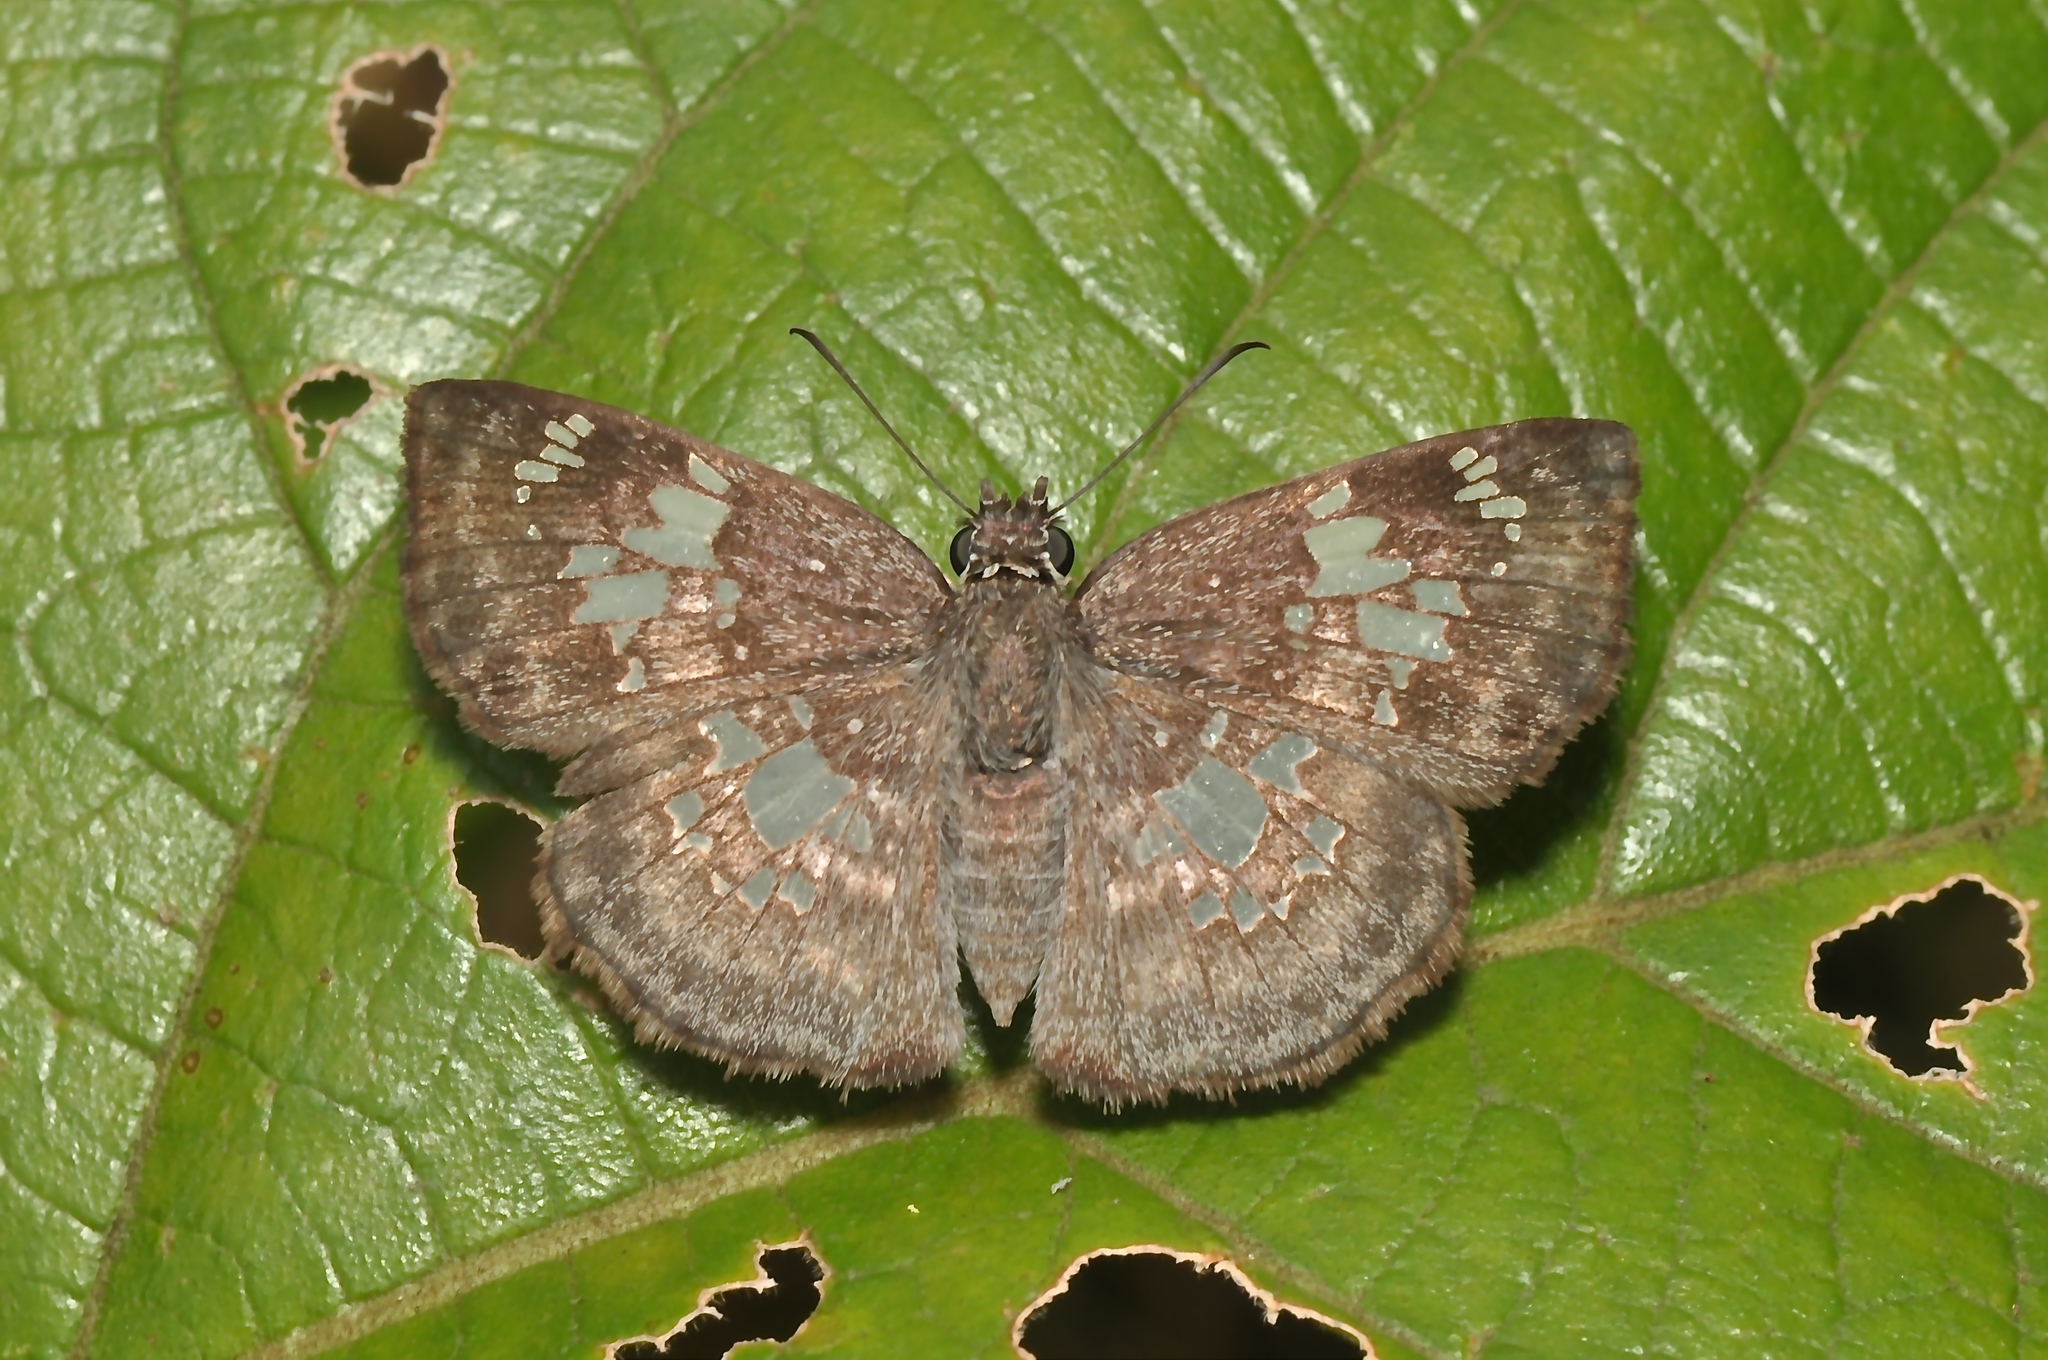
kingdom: Animalia
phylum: Arthropoda
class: Insecta
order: Lepidoptera
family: Hesperiidae
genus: Xenophanes
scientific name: Xenophanes tryxus
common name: Glassy-winged skipper
